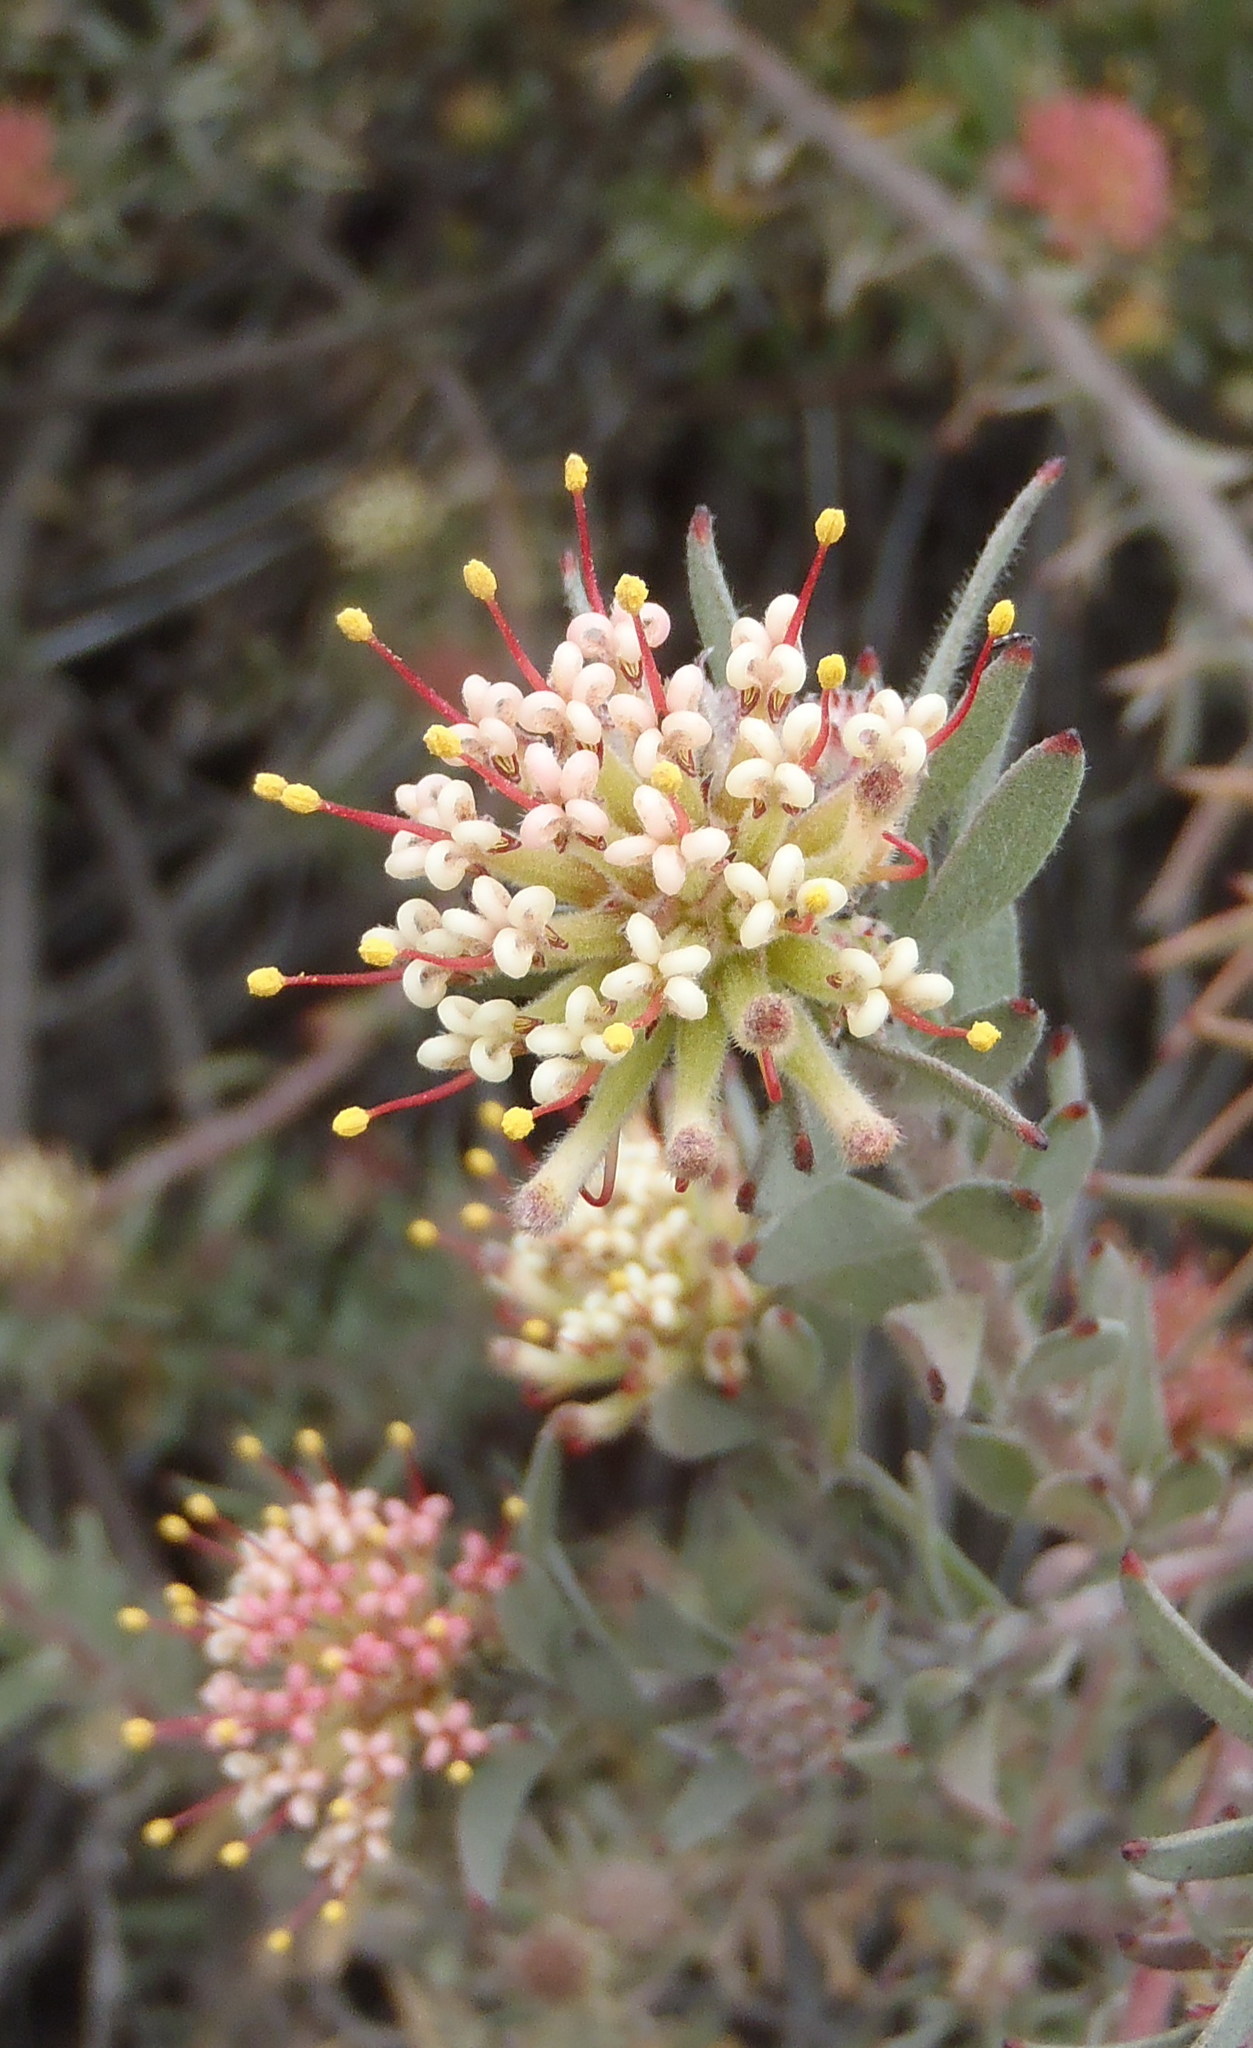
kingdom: Plantae
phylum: Tracheophyta
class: Magnoliopsida
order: Proteales
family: Proteaceae
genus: Leucospermum
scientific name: Leucospermum wittebergense
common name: Swartberg pincushion
